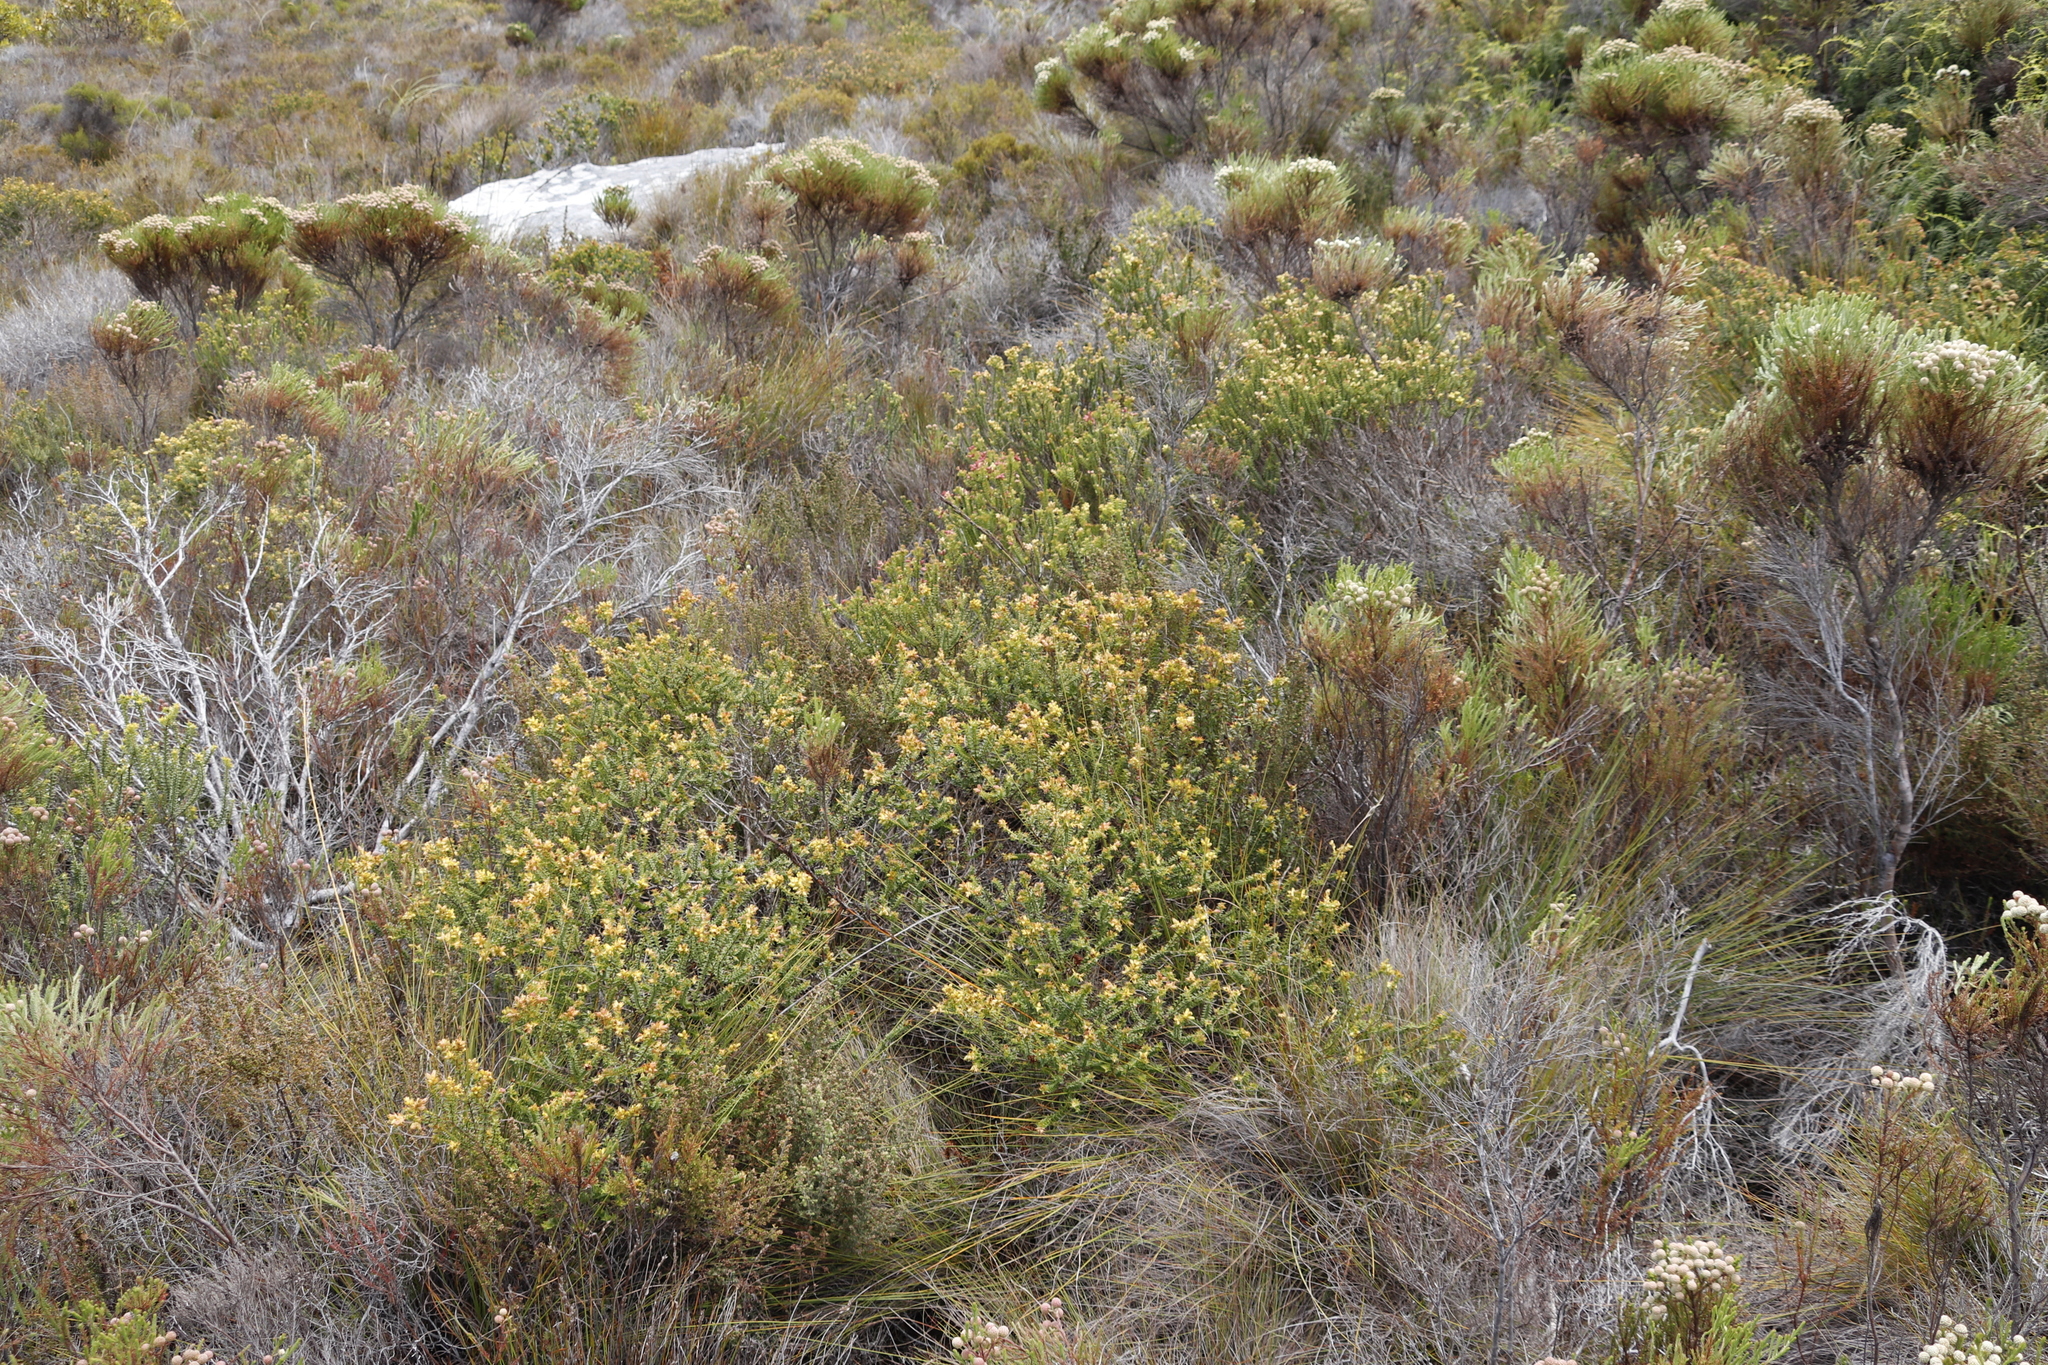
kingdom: Plantae
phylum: Tracheophyta
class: Magnoliopsida
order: Myrtales
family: Penaeaceae
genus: Penaea
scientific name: Penaea mucronata
